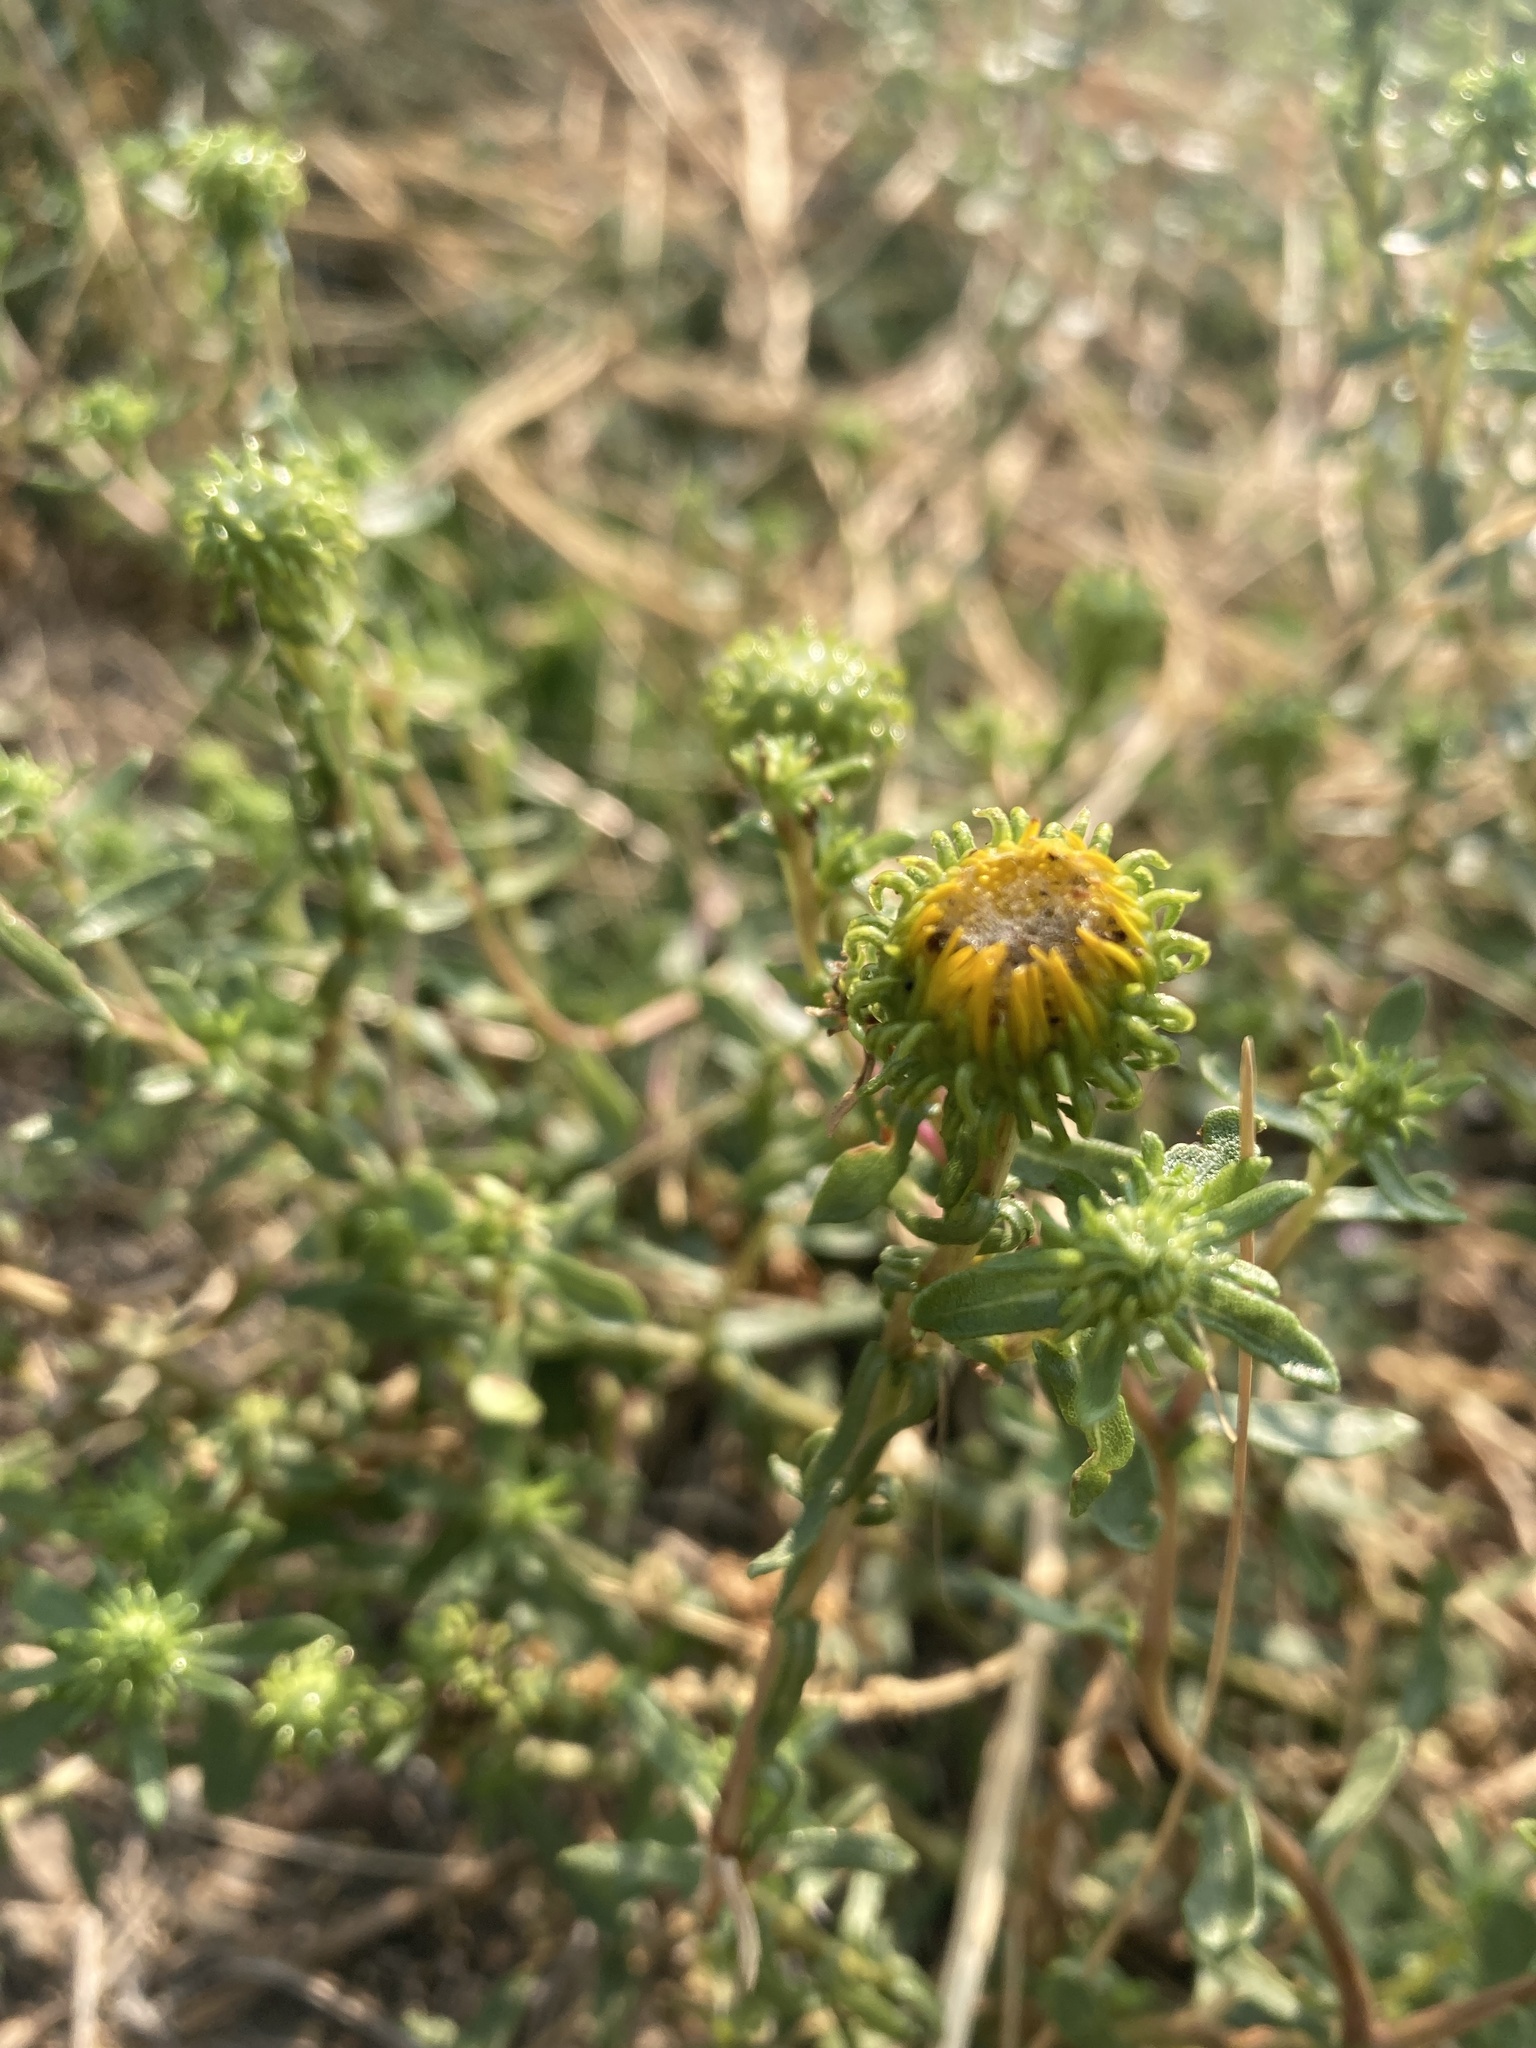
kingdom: Plantae
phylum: Tracheophyta
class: Magnoliopsida
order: Asterales
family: Asteraceae
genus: Grindelia
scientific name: Grindelia squarrosa
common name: Curly-cup gumweed
